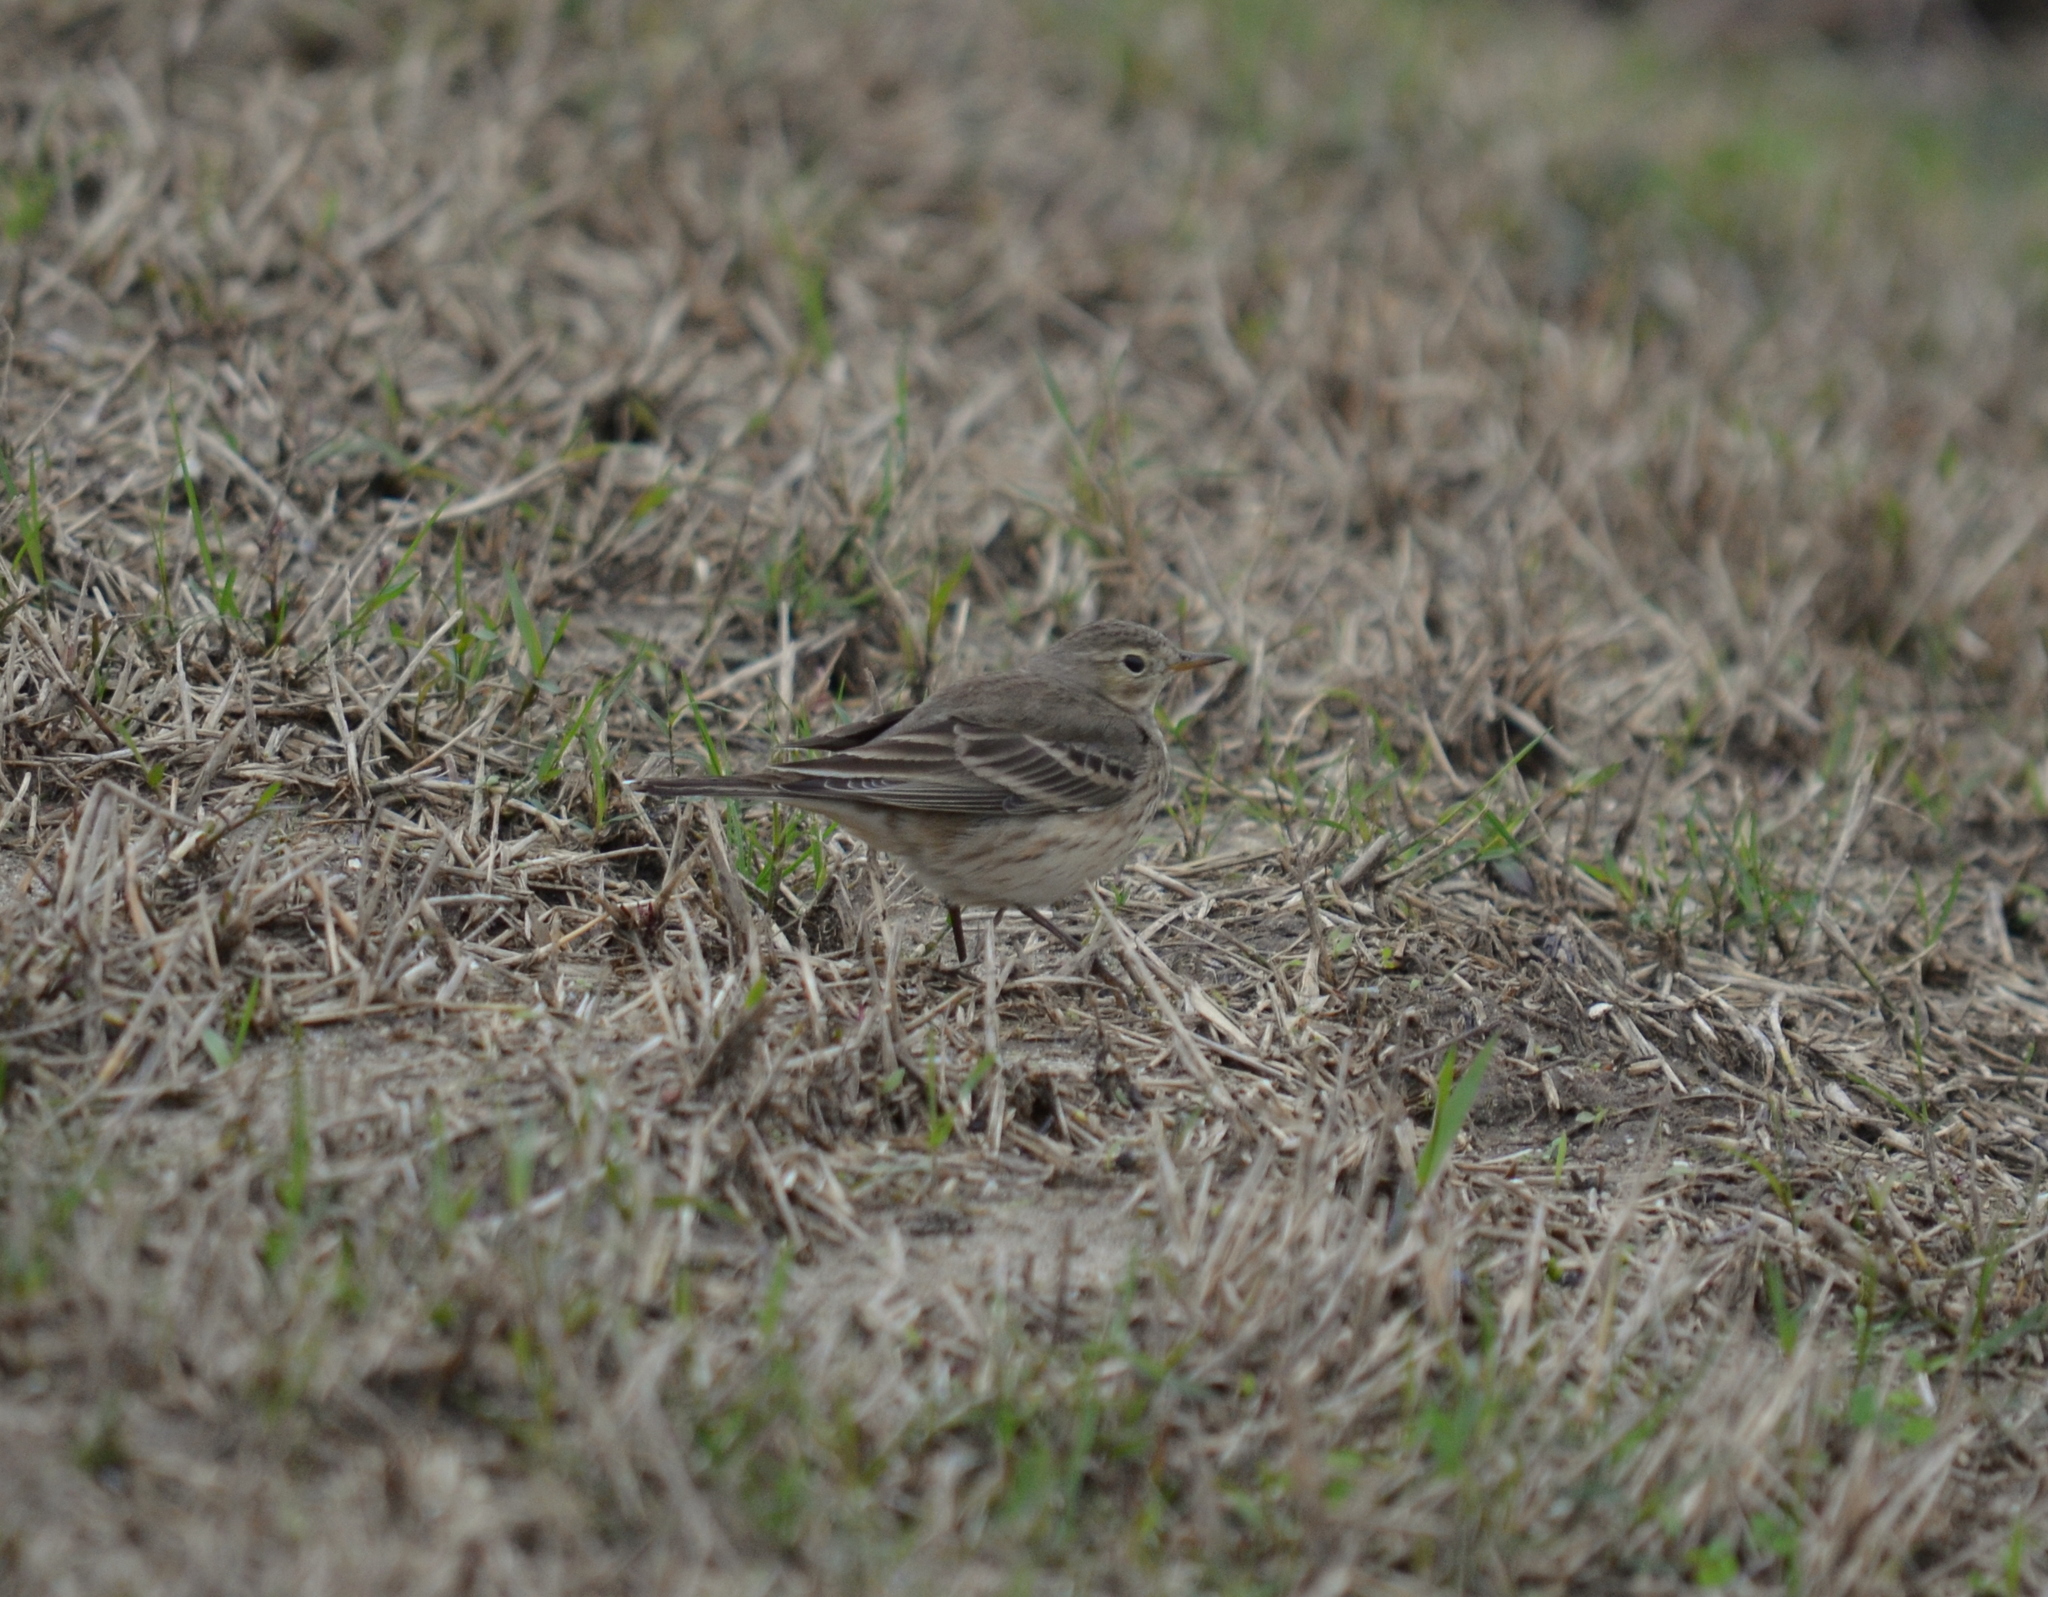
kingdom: Animalia
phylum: Chordata
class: Aves
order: Passeriformes
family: Motacillidae
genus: Anthus
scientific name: Anthus rubescens
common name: Buff-bellied pipit
